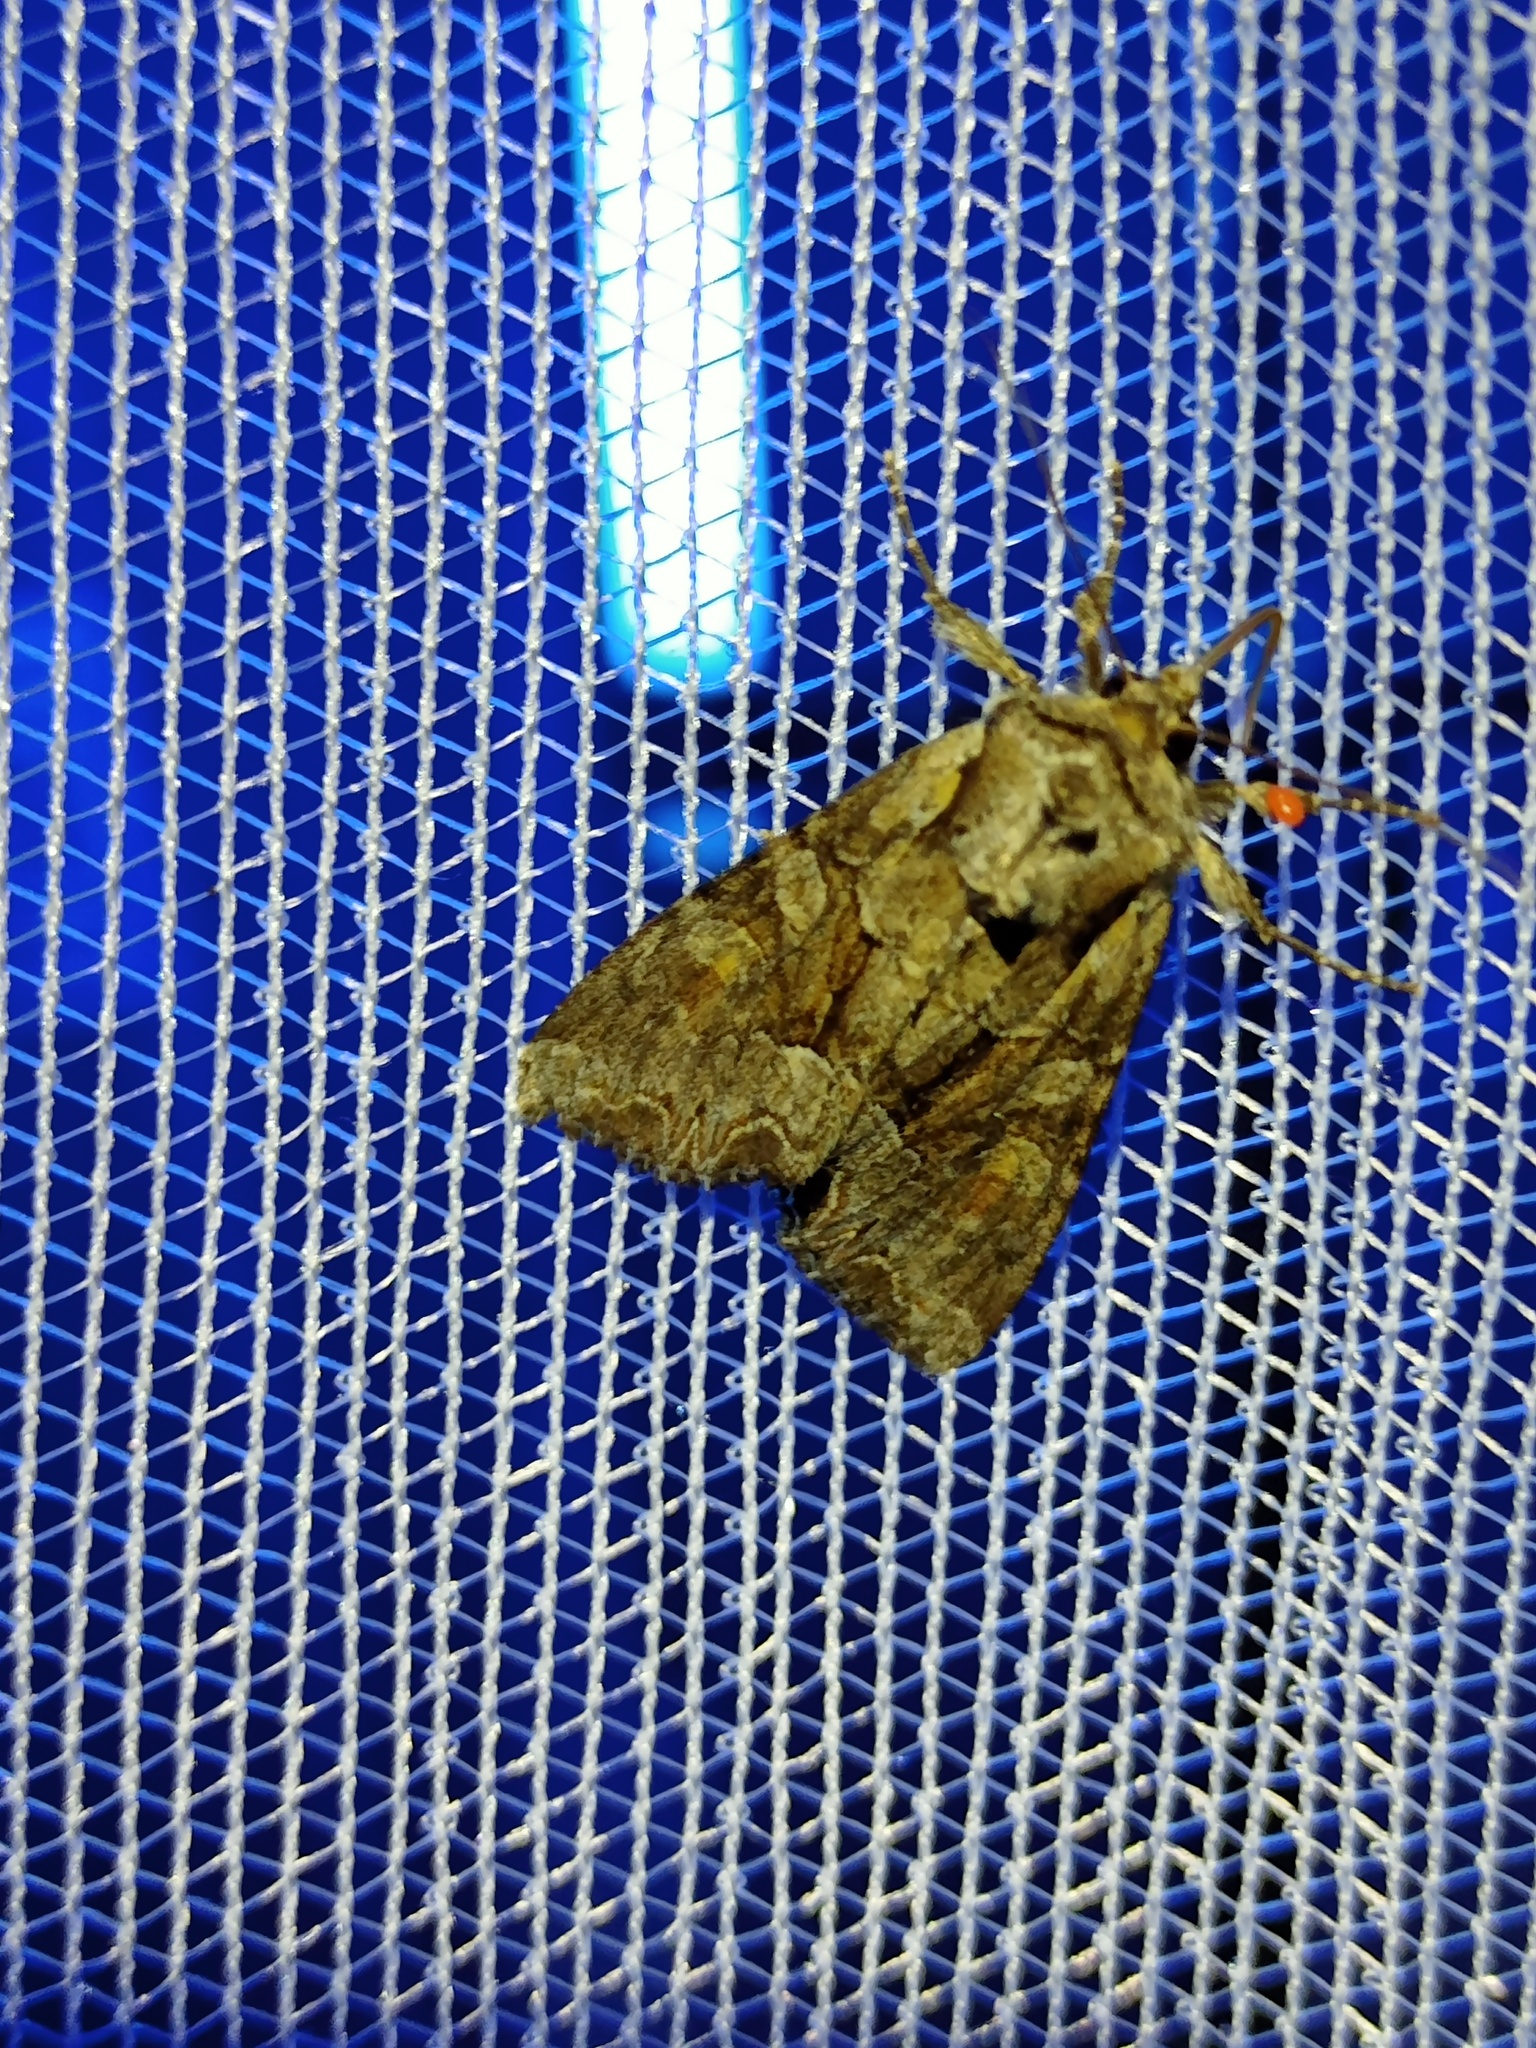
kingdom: Animalia
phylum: Arthropoda
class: Insecta
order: Lepidoptera
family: Noctuidae
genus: Lacanobia
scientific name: Lacanobia w-latinum
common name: Light brocade
